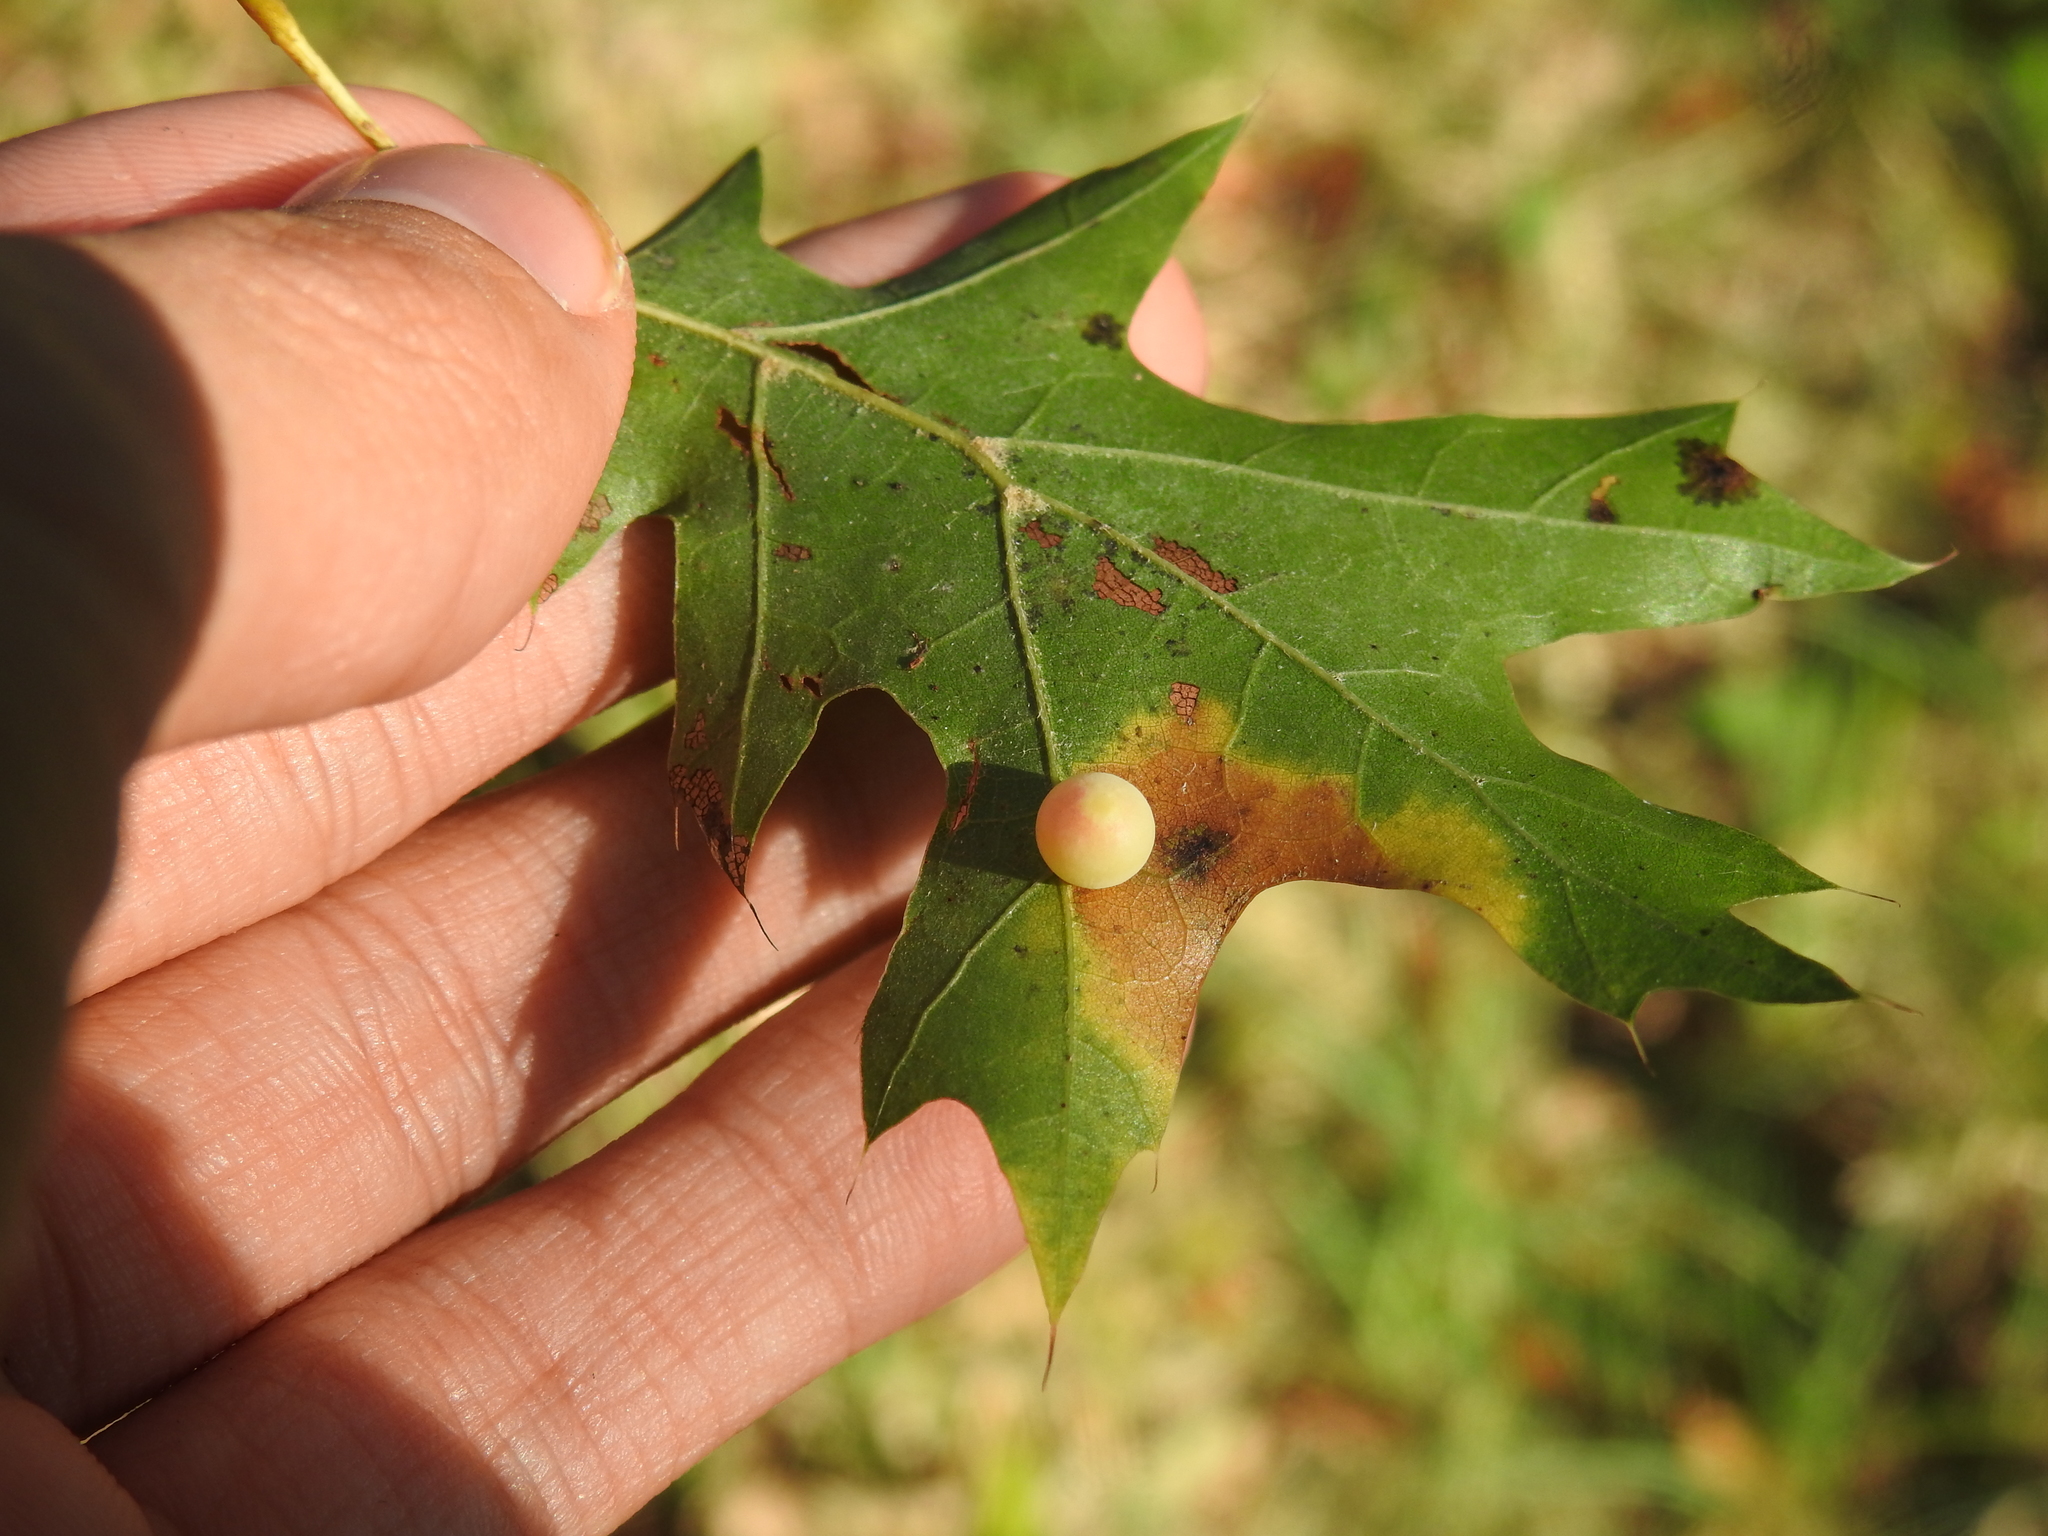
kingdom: Animalia
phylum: Arthropoda
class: Insecta
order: Hymenoptera
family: Cynipidae
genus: Zopheroteras
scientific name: Zopheroteras
